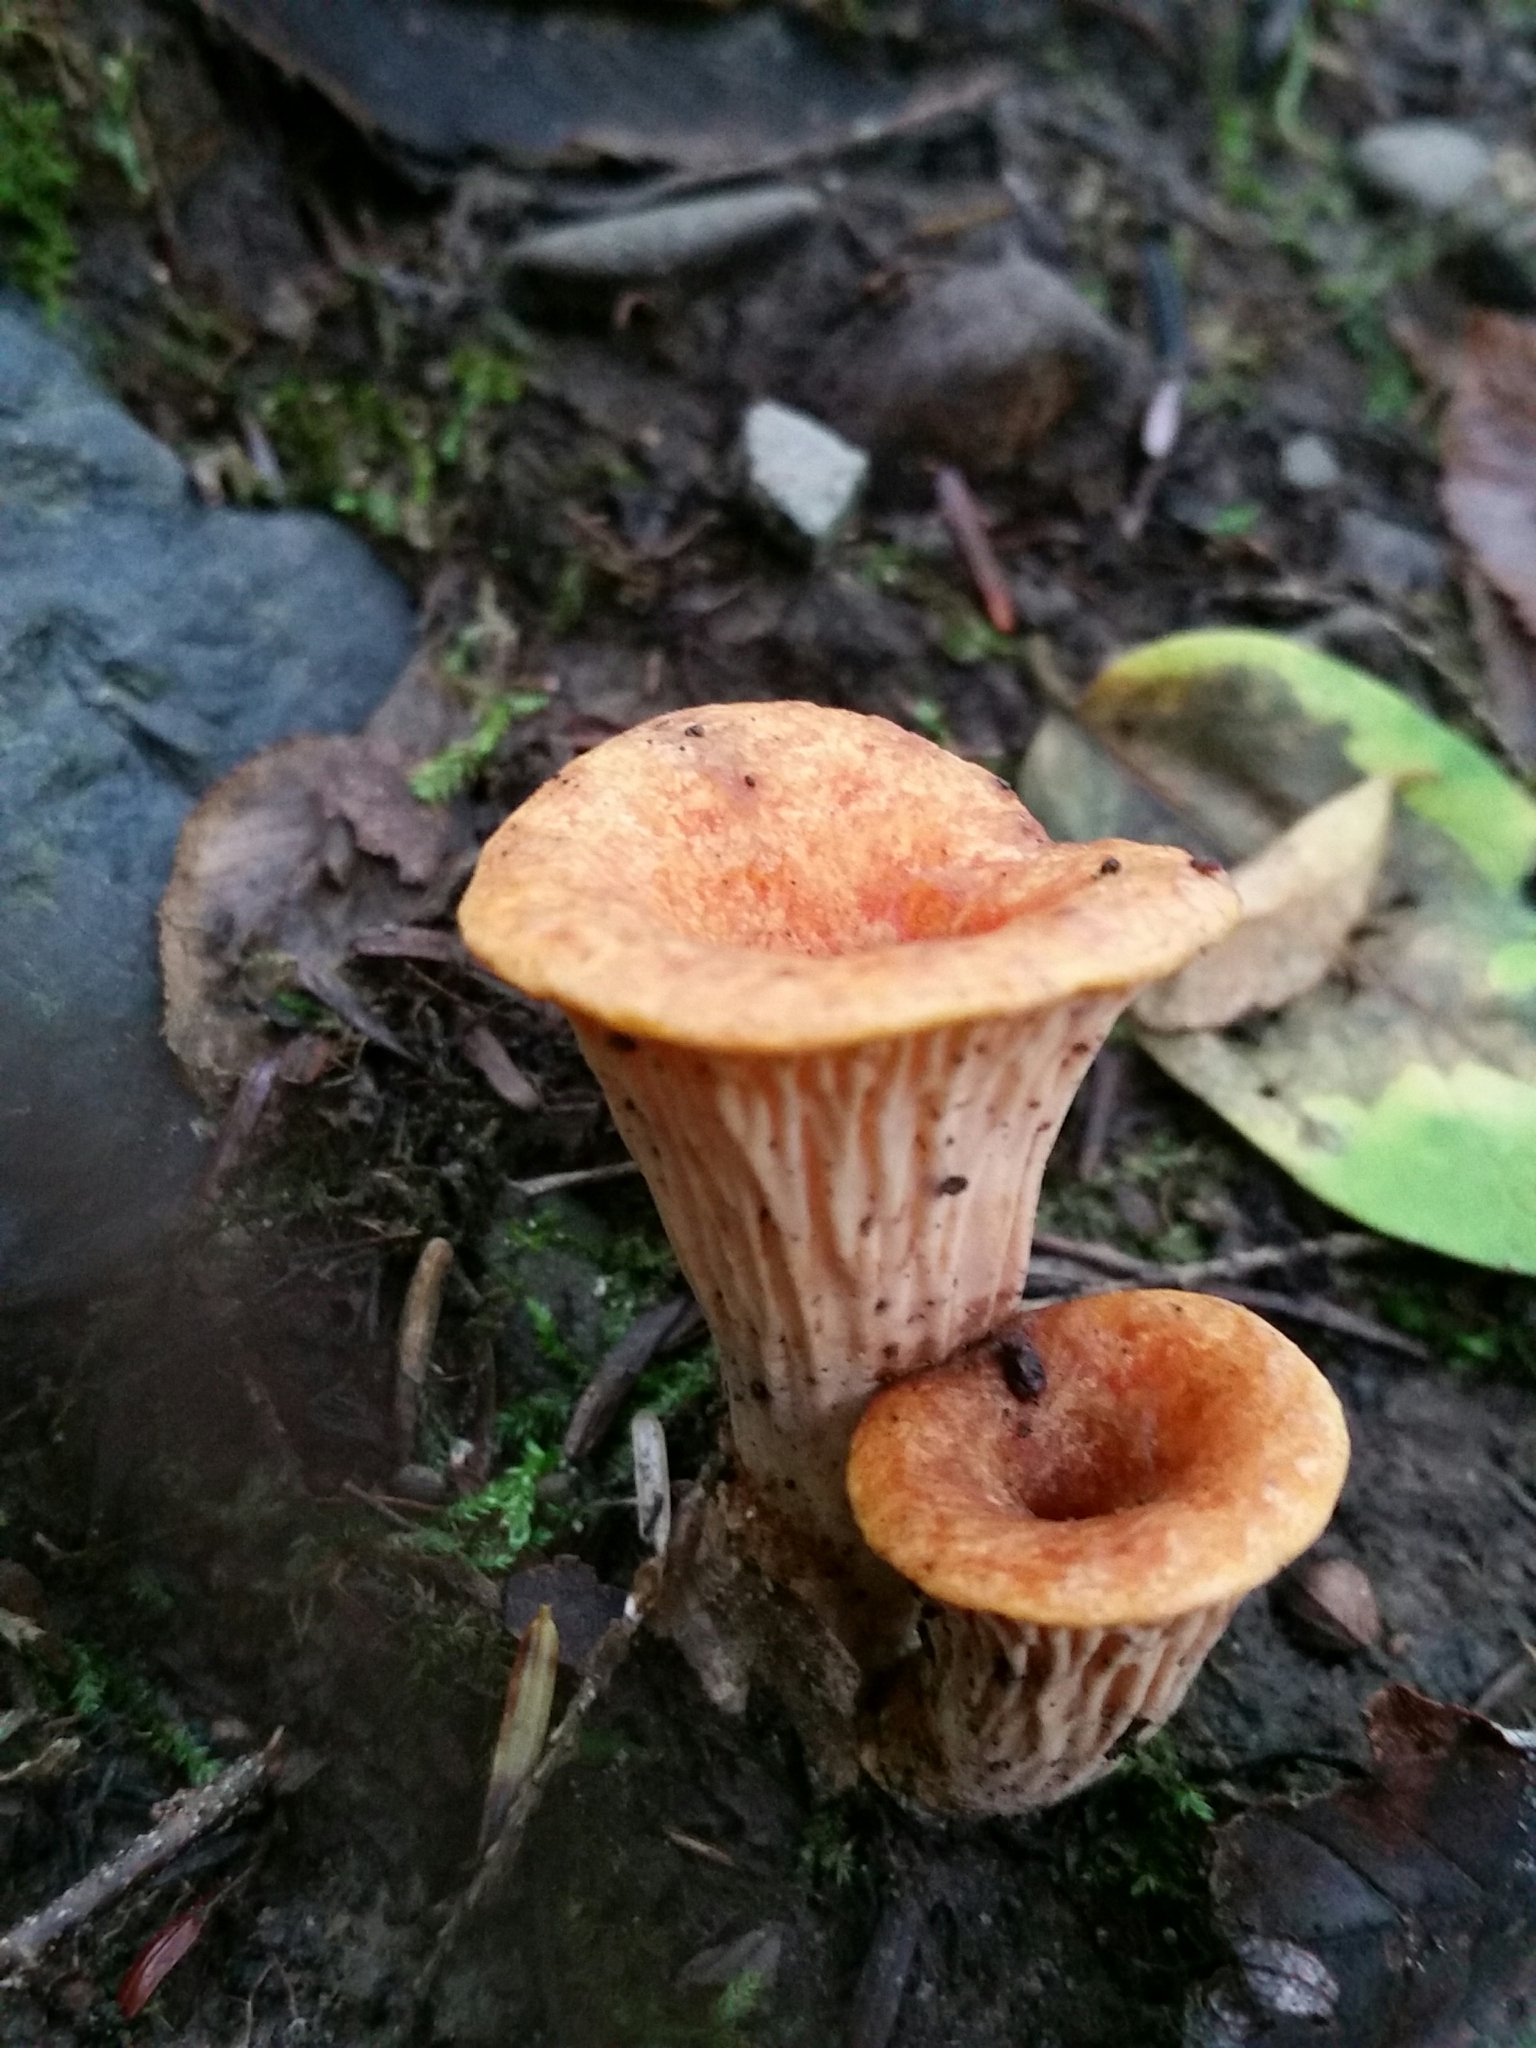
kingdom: Fungi
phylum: Basidiomycota
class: Agaricomycetes
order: Gomphales
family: Gomphaceae
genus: Turbinellus
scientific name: Turbinellus floccosus
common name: Scaly chanterelle
